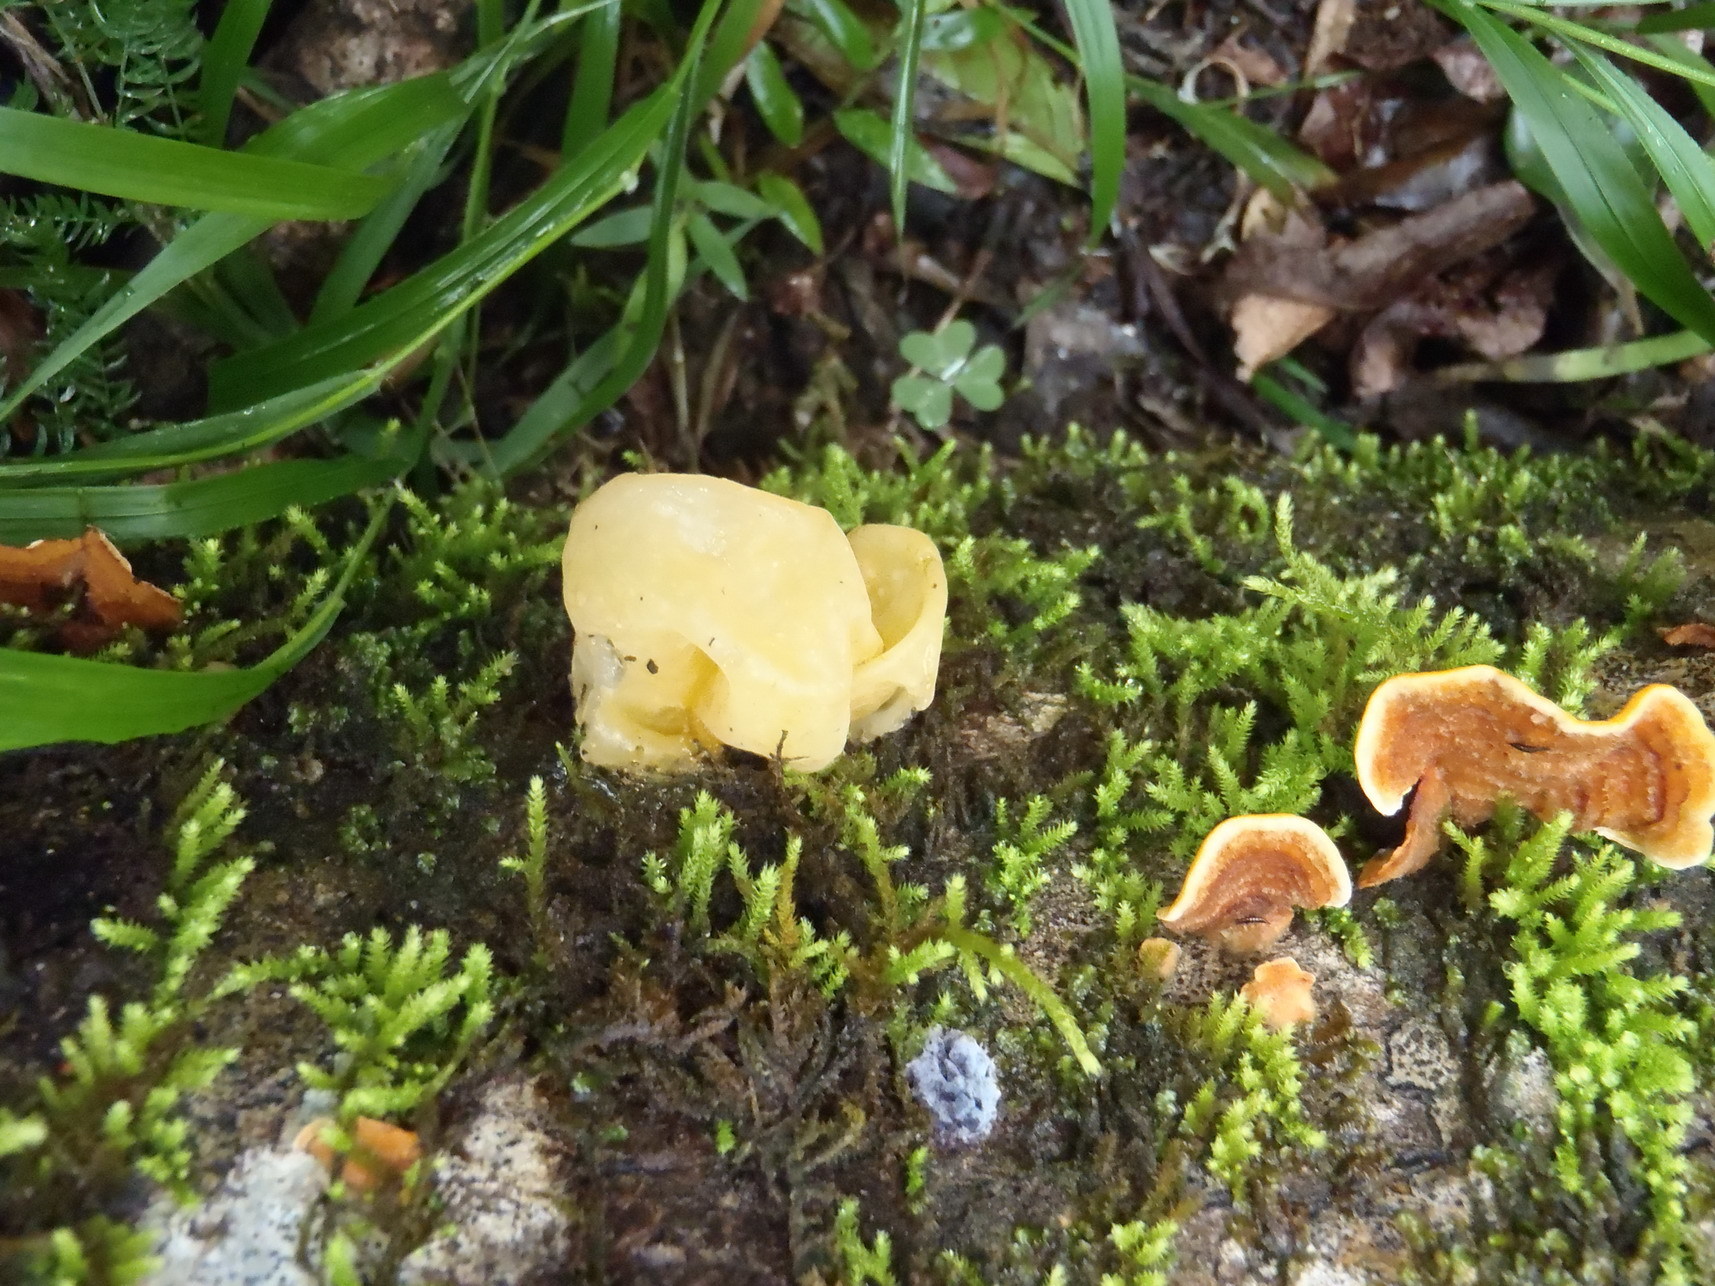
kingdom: Fungi
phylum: Basidiomycota
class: Dacrymycetes
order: Dacrymycetales
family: Dacrymycetaceae
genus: Dacrymyces
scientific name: Dacrymyces spathularius
